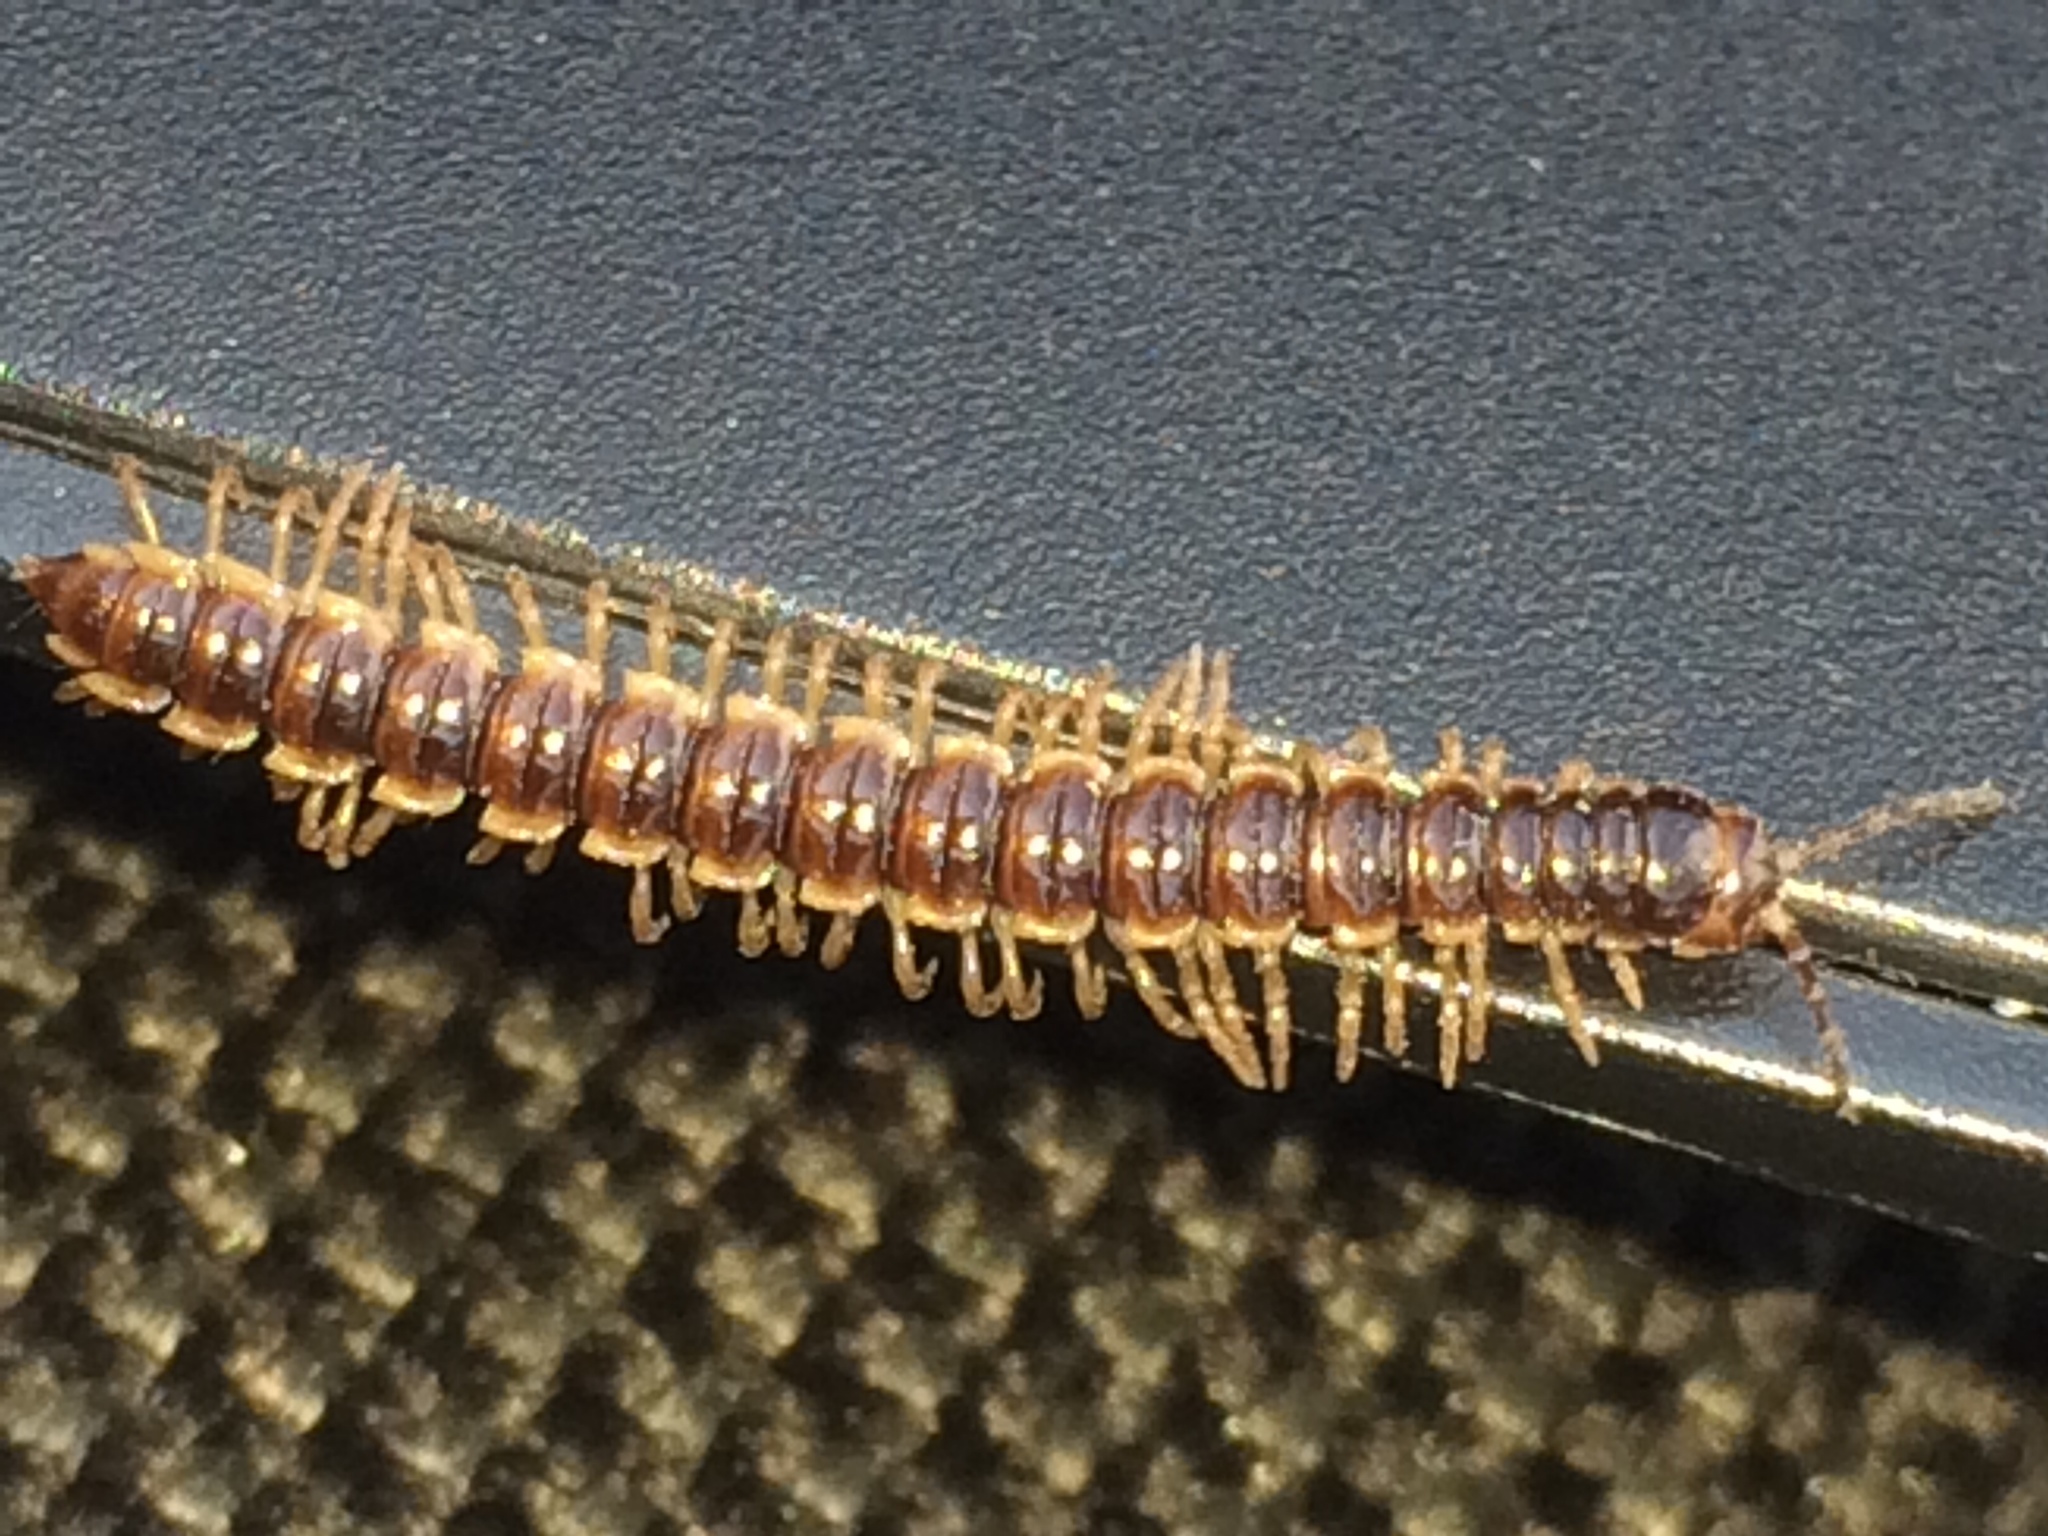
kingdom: Animalia
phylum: Arthropoda
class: Diplopoda
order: Polydesmida
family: Paradoxosomatidae
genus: Oxidus
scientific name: Oxidus gracilis
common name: Greenhouse millipede
